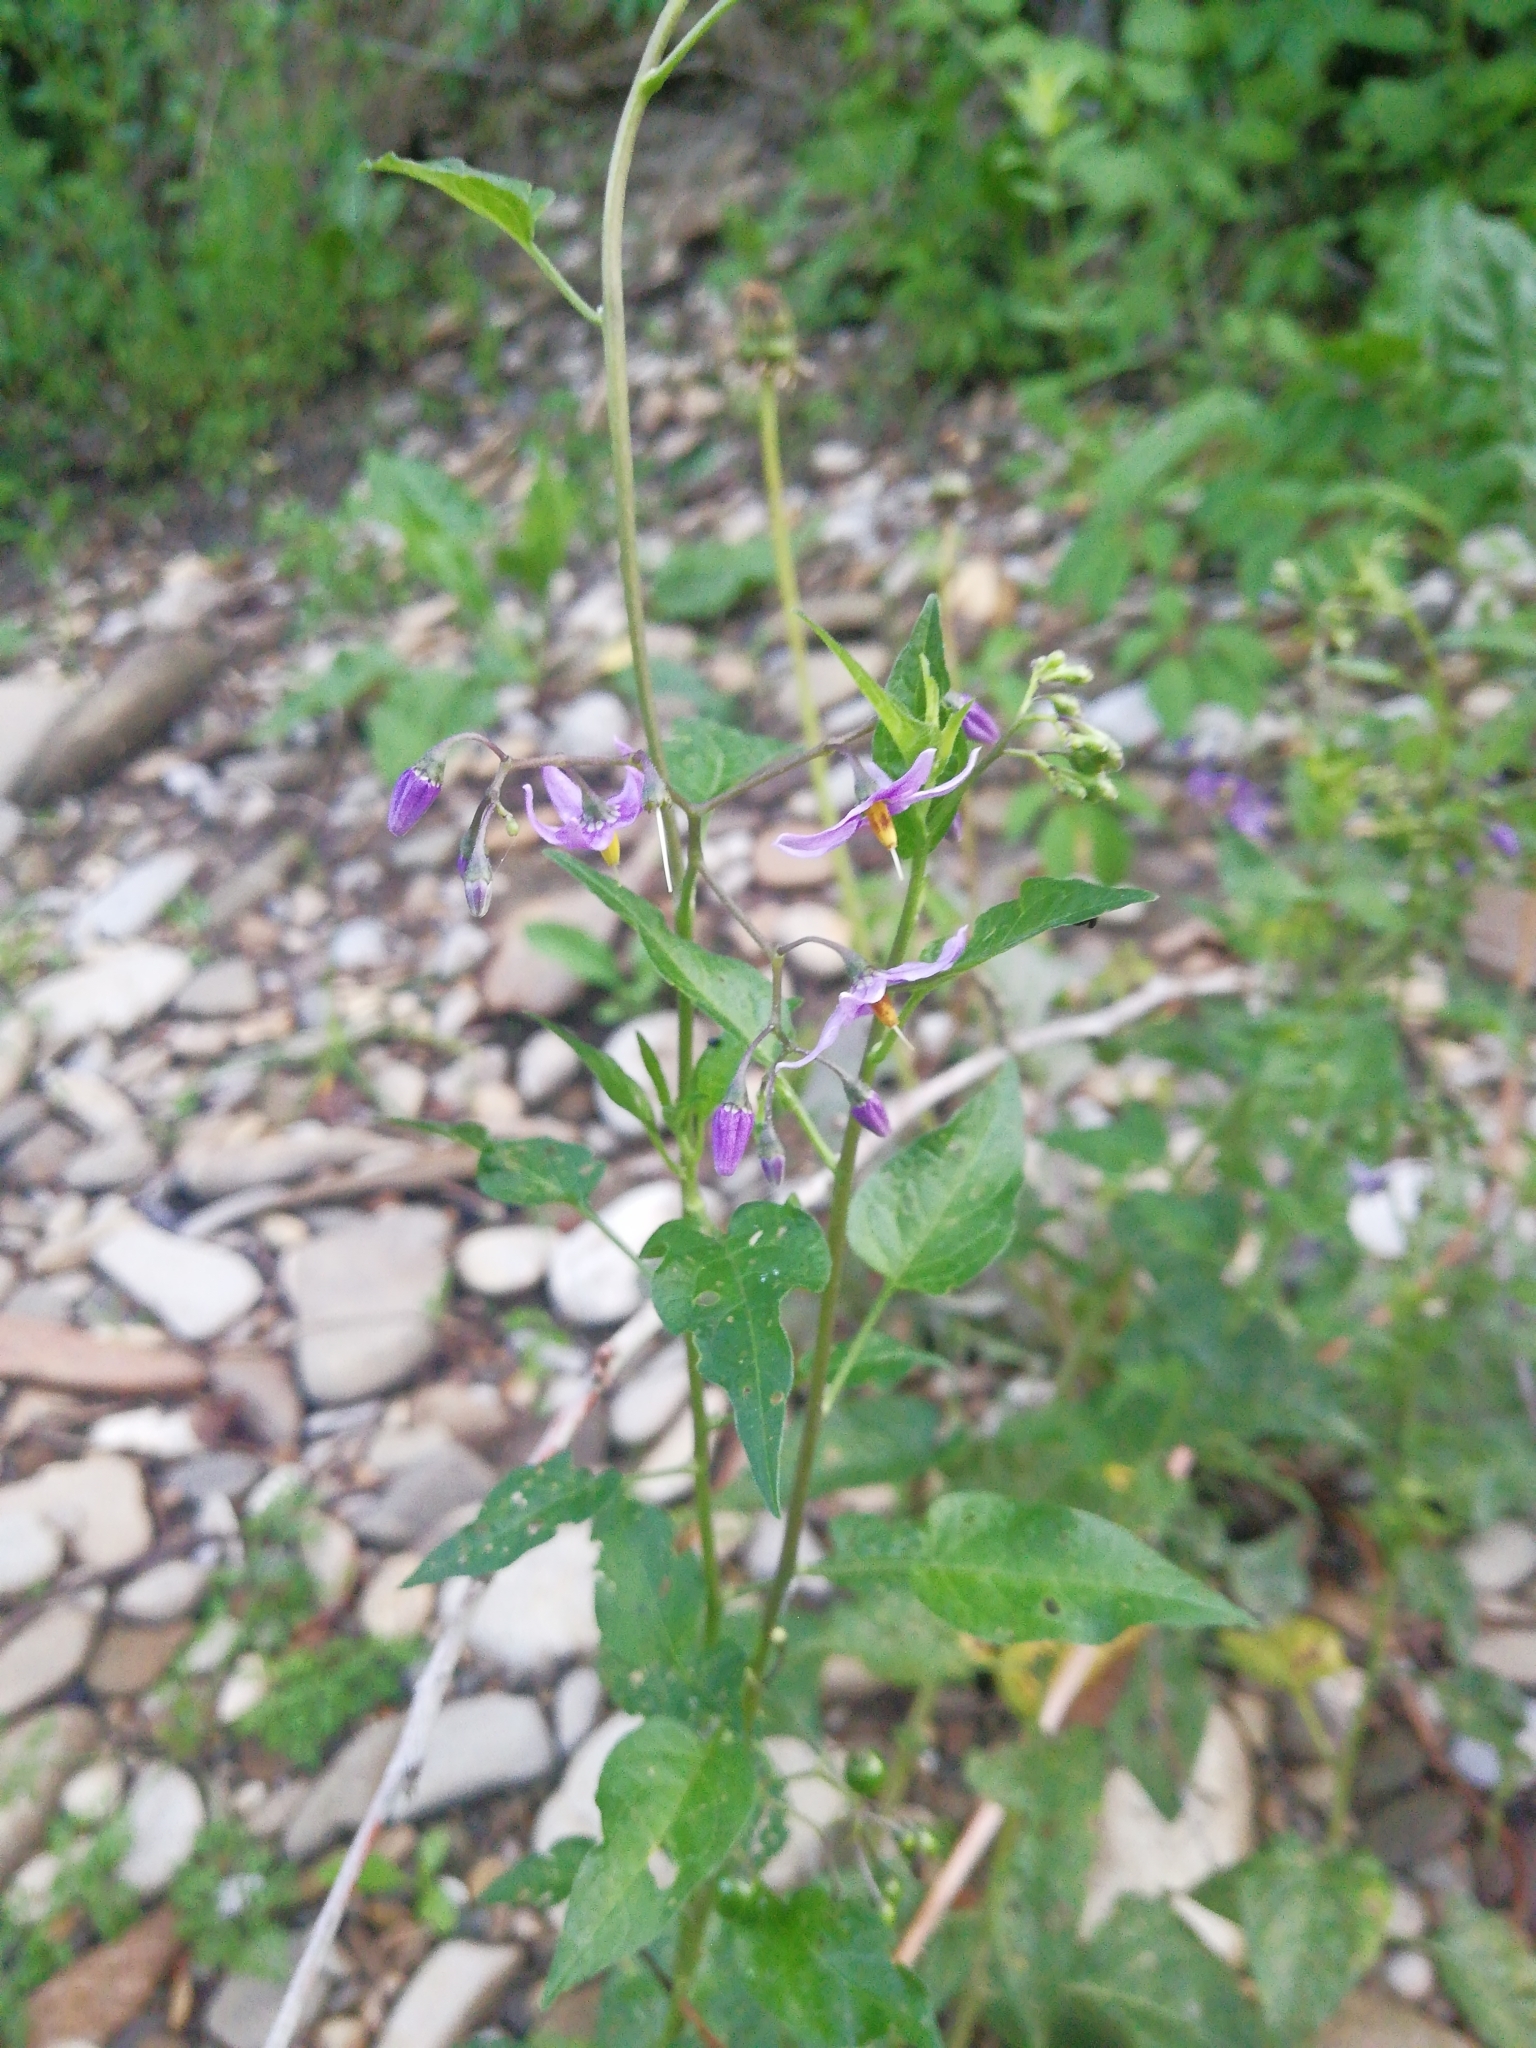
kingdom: Plantae
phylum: Tracheophyta
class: Magnoliopsida
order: Solanales
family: Solanaceae
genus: Solanum
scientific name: Solanum dulcamara
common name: Climbing nightshade
